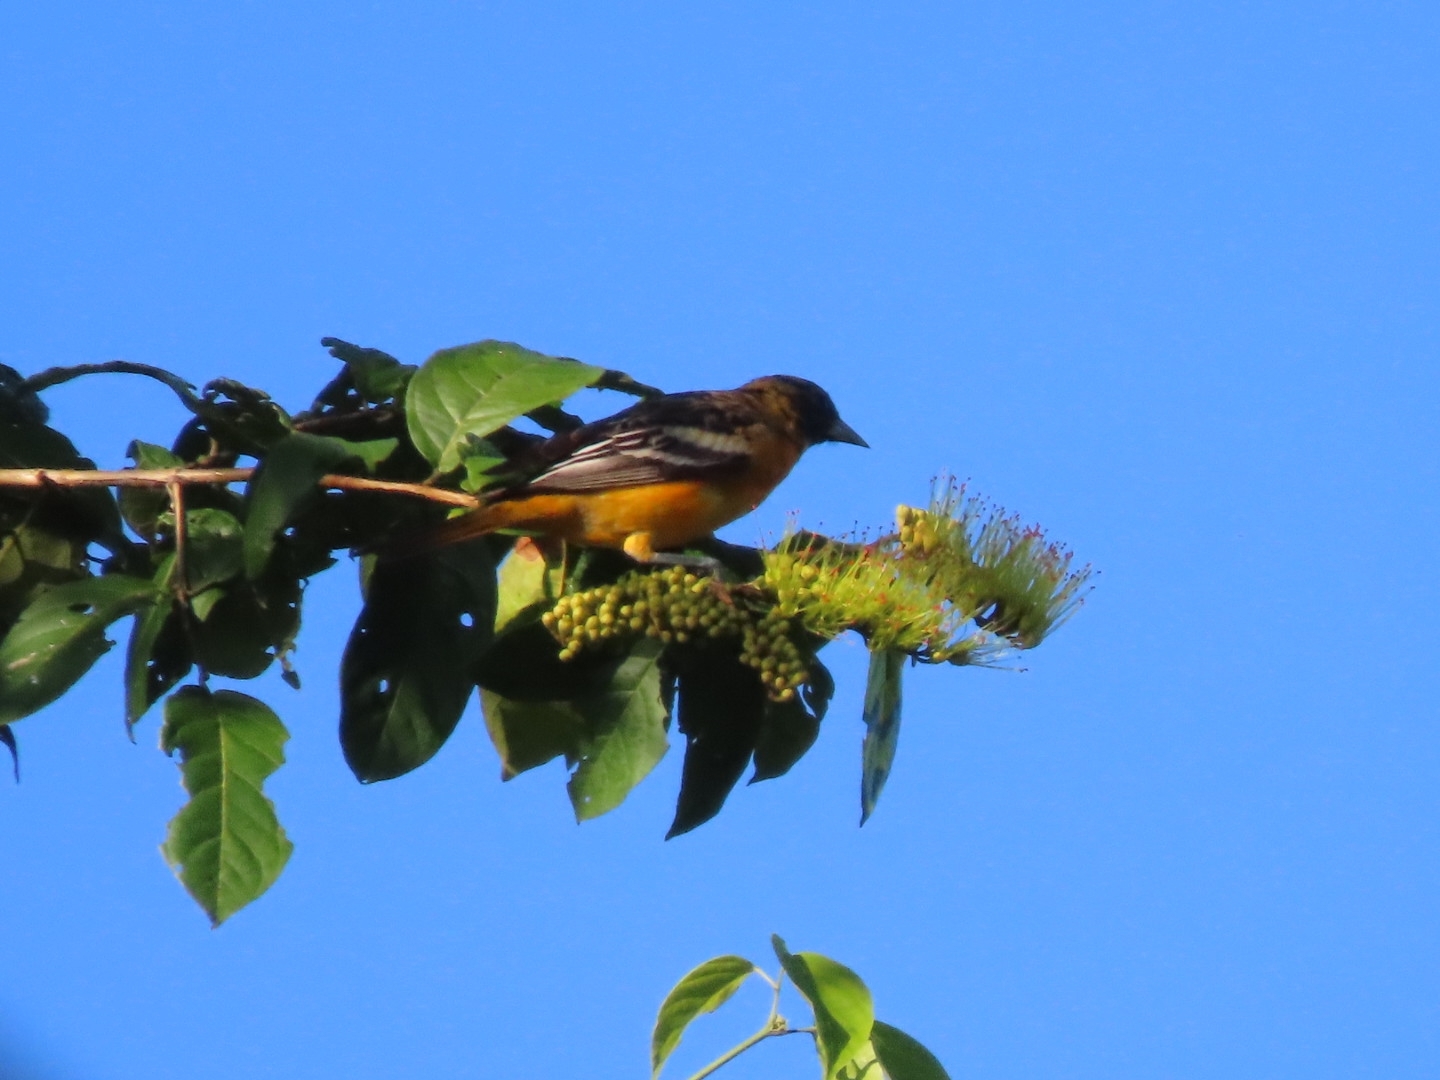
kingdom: Animalia
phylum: Chordata
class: Aves
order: Passeriformes
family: Icteridae
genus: Icterus
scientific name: Icterus galbula
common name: Baltimore oriole
